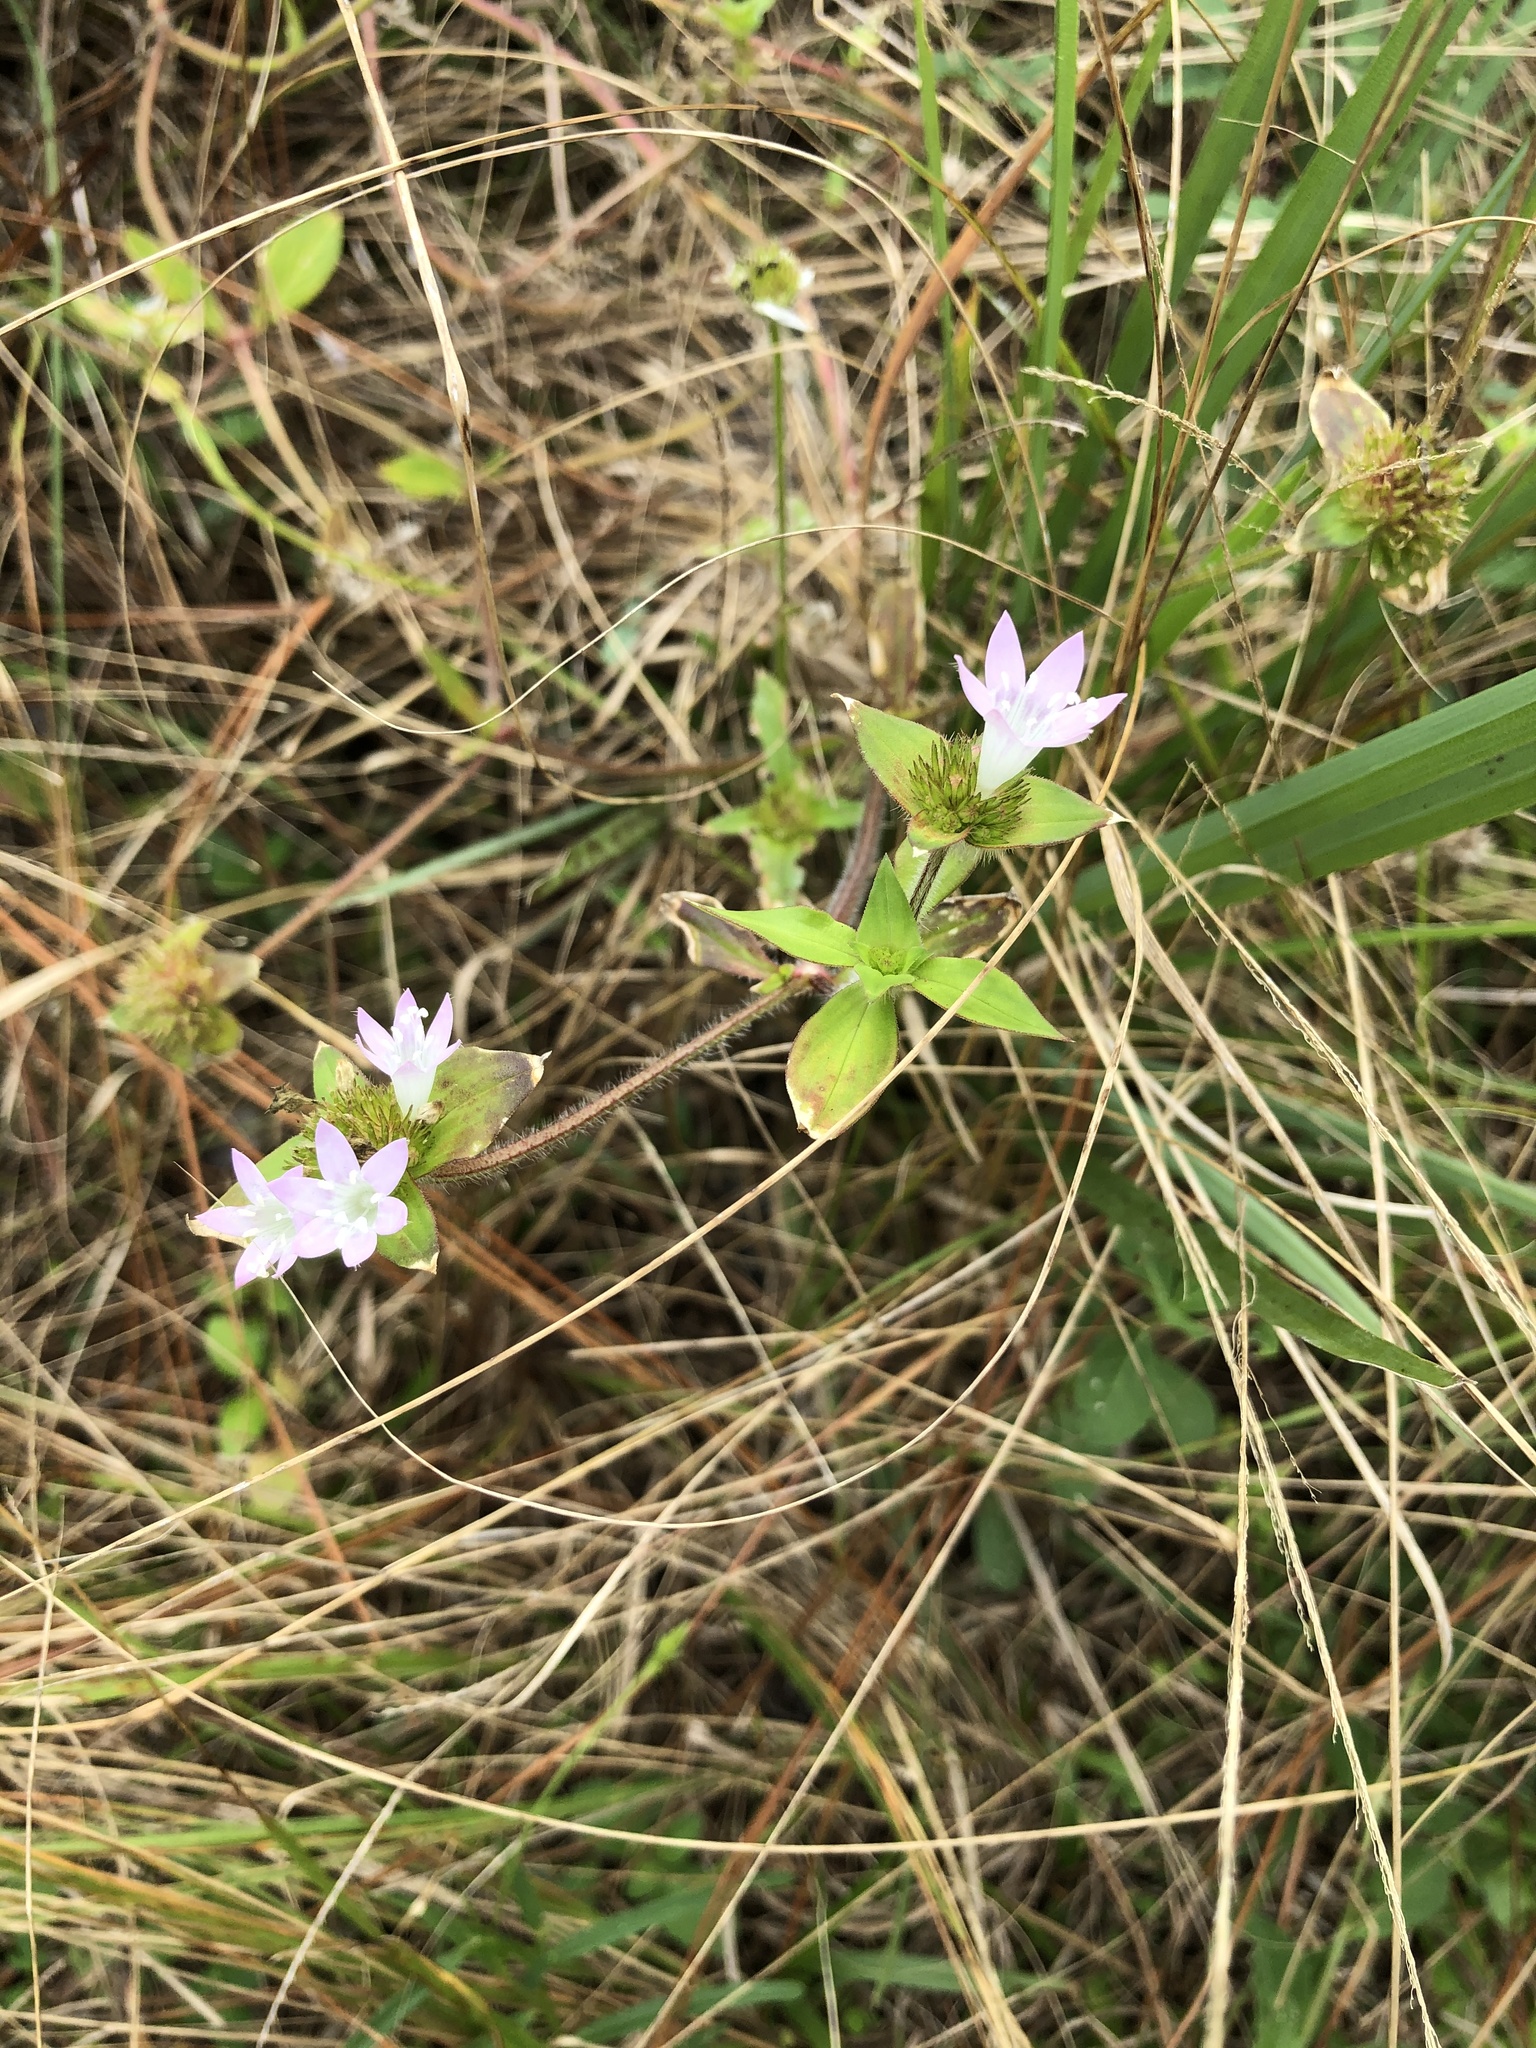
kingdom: Plantae
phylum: Tracheophyta
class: Magnoliopsida
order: Gentianales
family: Rubiaceae
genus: Richardia
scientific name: Richardia grandiflora
